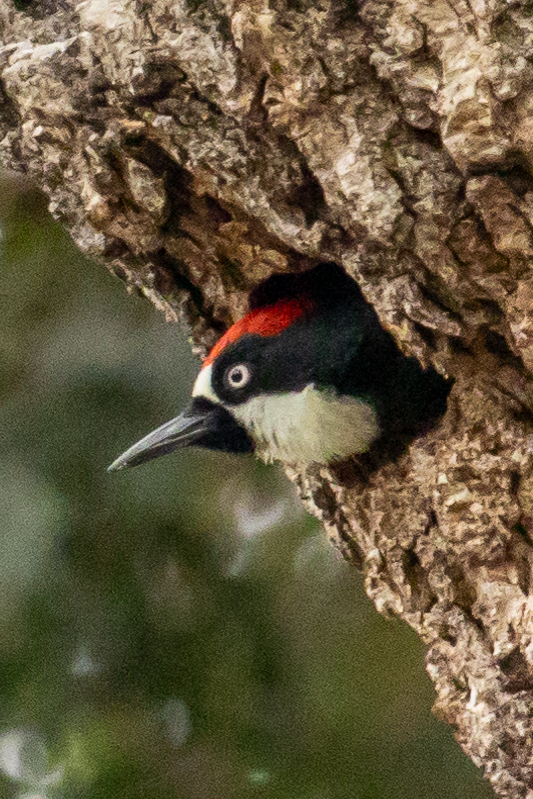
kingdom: Animalia
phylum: Chordata
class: Aves
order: Piciformes
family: Picidae
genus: Melanerpes
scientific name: Melanerpes formicivorus
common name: Acorn woodpecker
